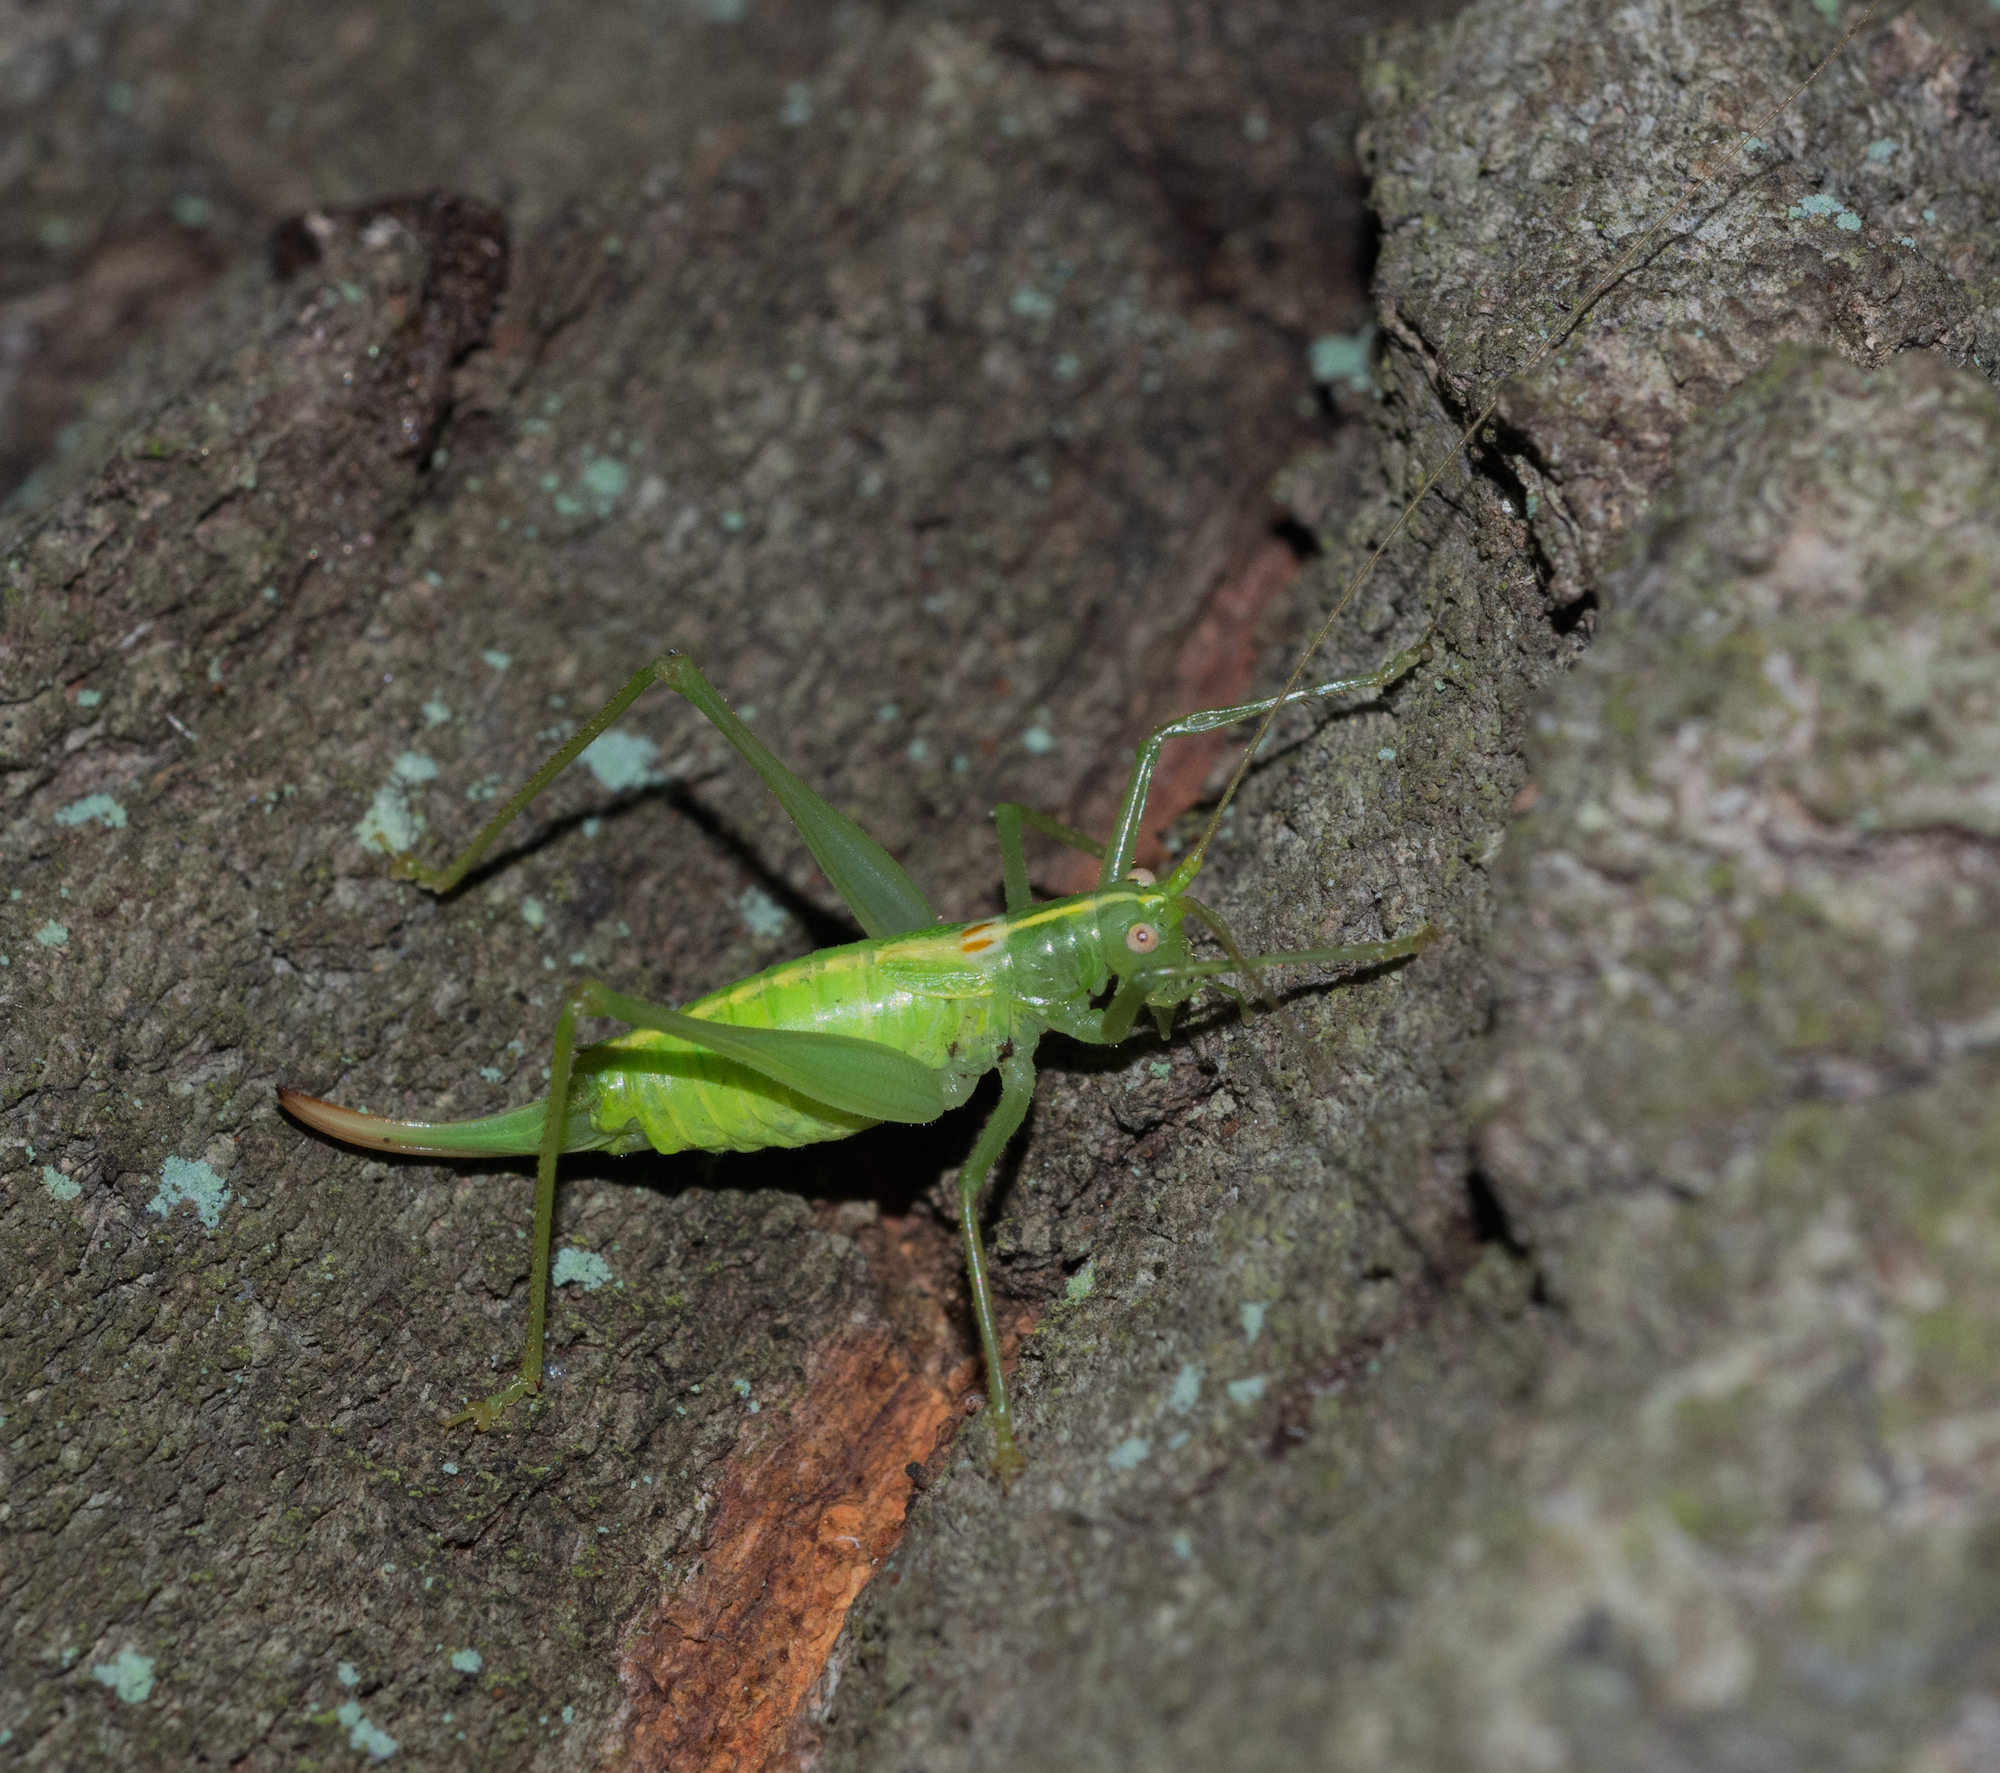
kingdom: Animalia
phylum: Arthropoda
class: Insecta
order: Orthoptera
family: Tettigoniidae
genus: Meconema
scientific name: Meconema meridionale
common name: Southern oak bush-cricket
